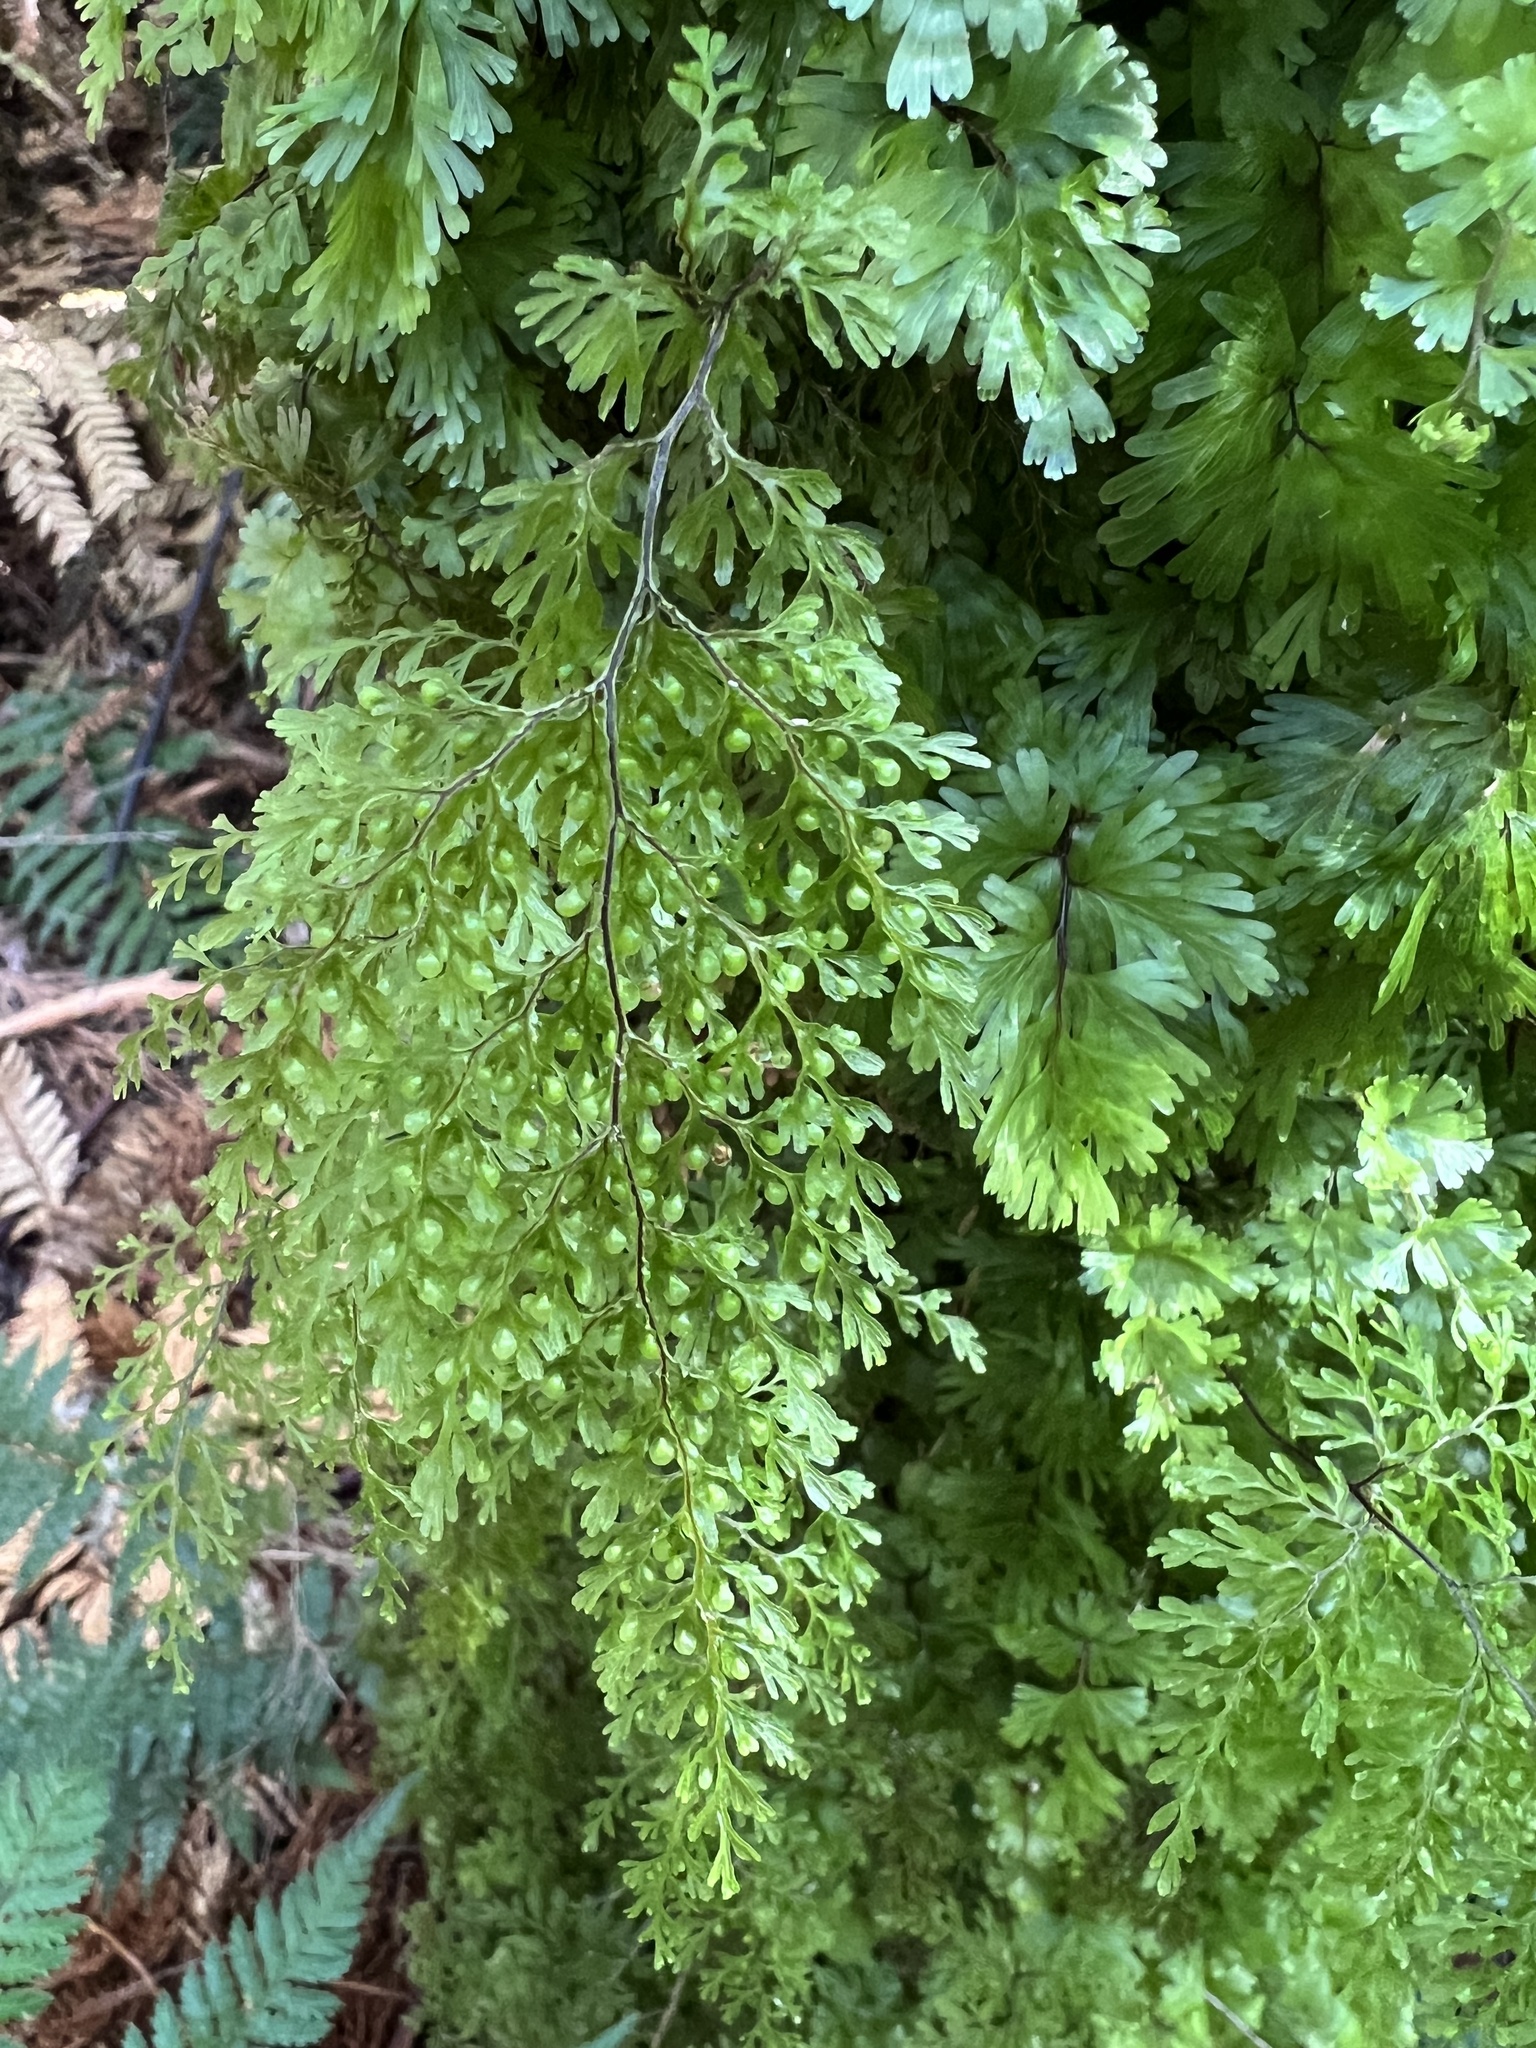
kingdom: Plantae
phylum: Tracheophyta
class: Polypodiopsida
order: Hymenophyllales
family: Hymenophyllaceae
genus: Hymenophyllum
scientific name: Hymenophyllum bivalve
